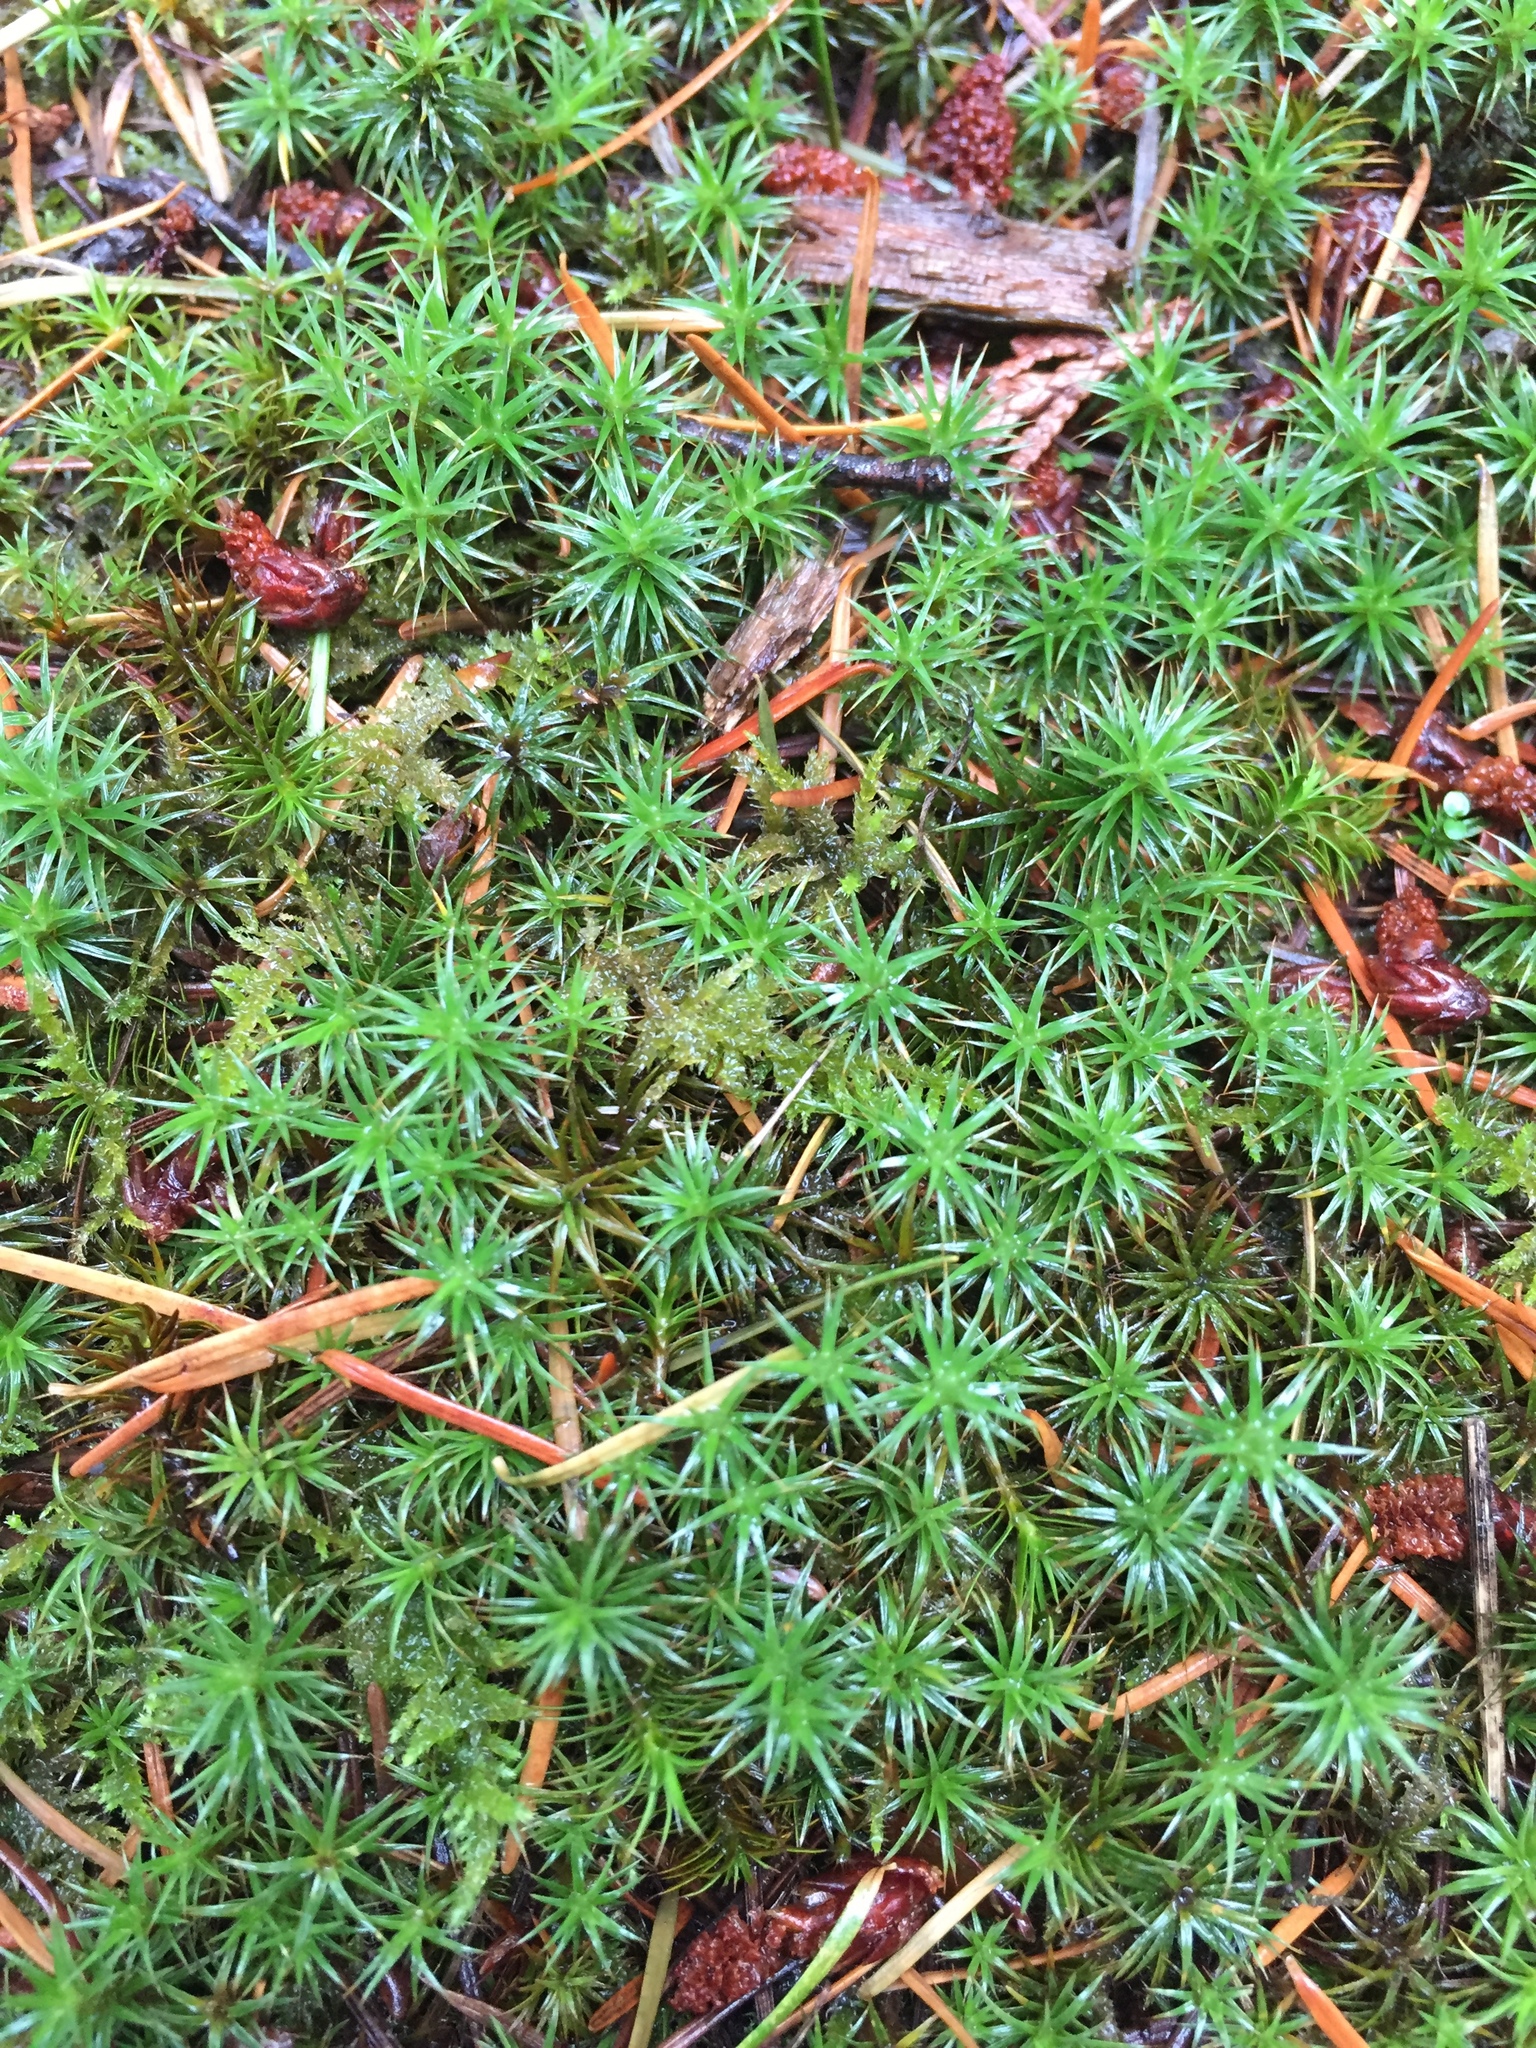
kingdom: Plantae
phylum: Bryophyta
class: Polytrichopsida
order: Polytrichales
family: Polytrichaceae
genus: Polytrichum
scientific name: Polytrichum juniperinum
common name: Juniper haircap moss
